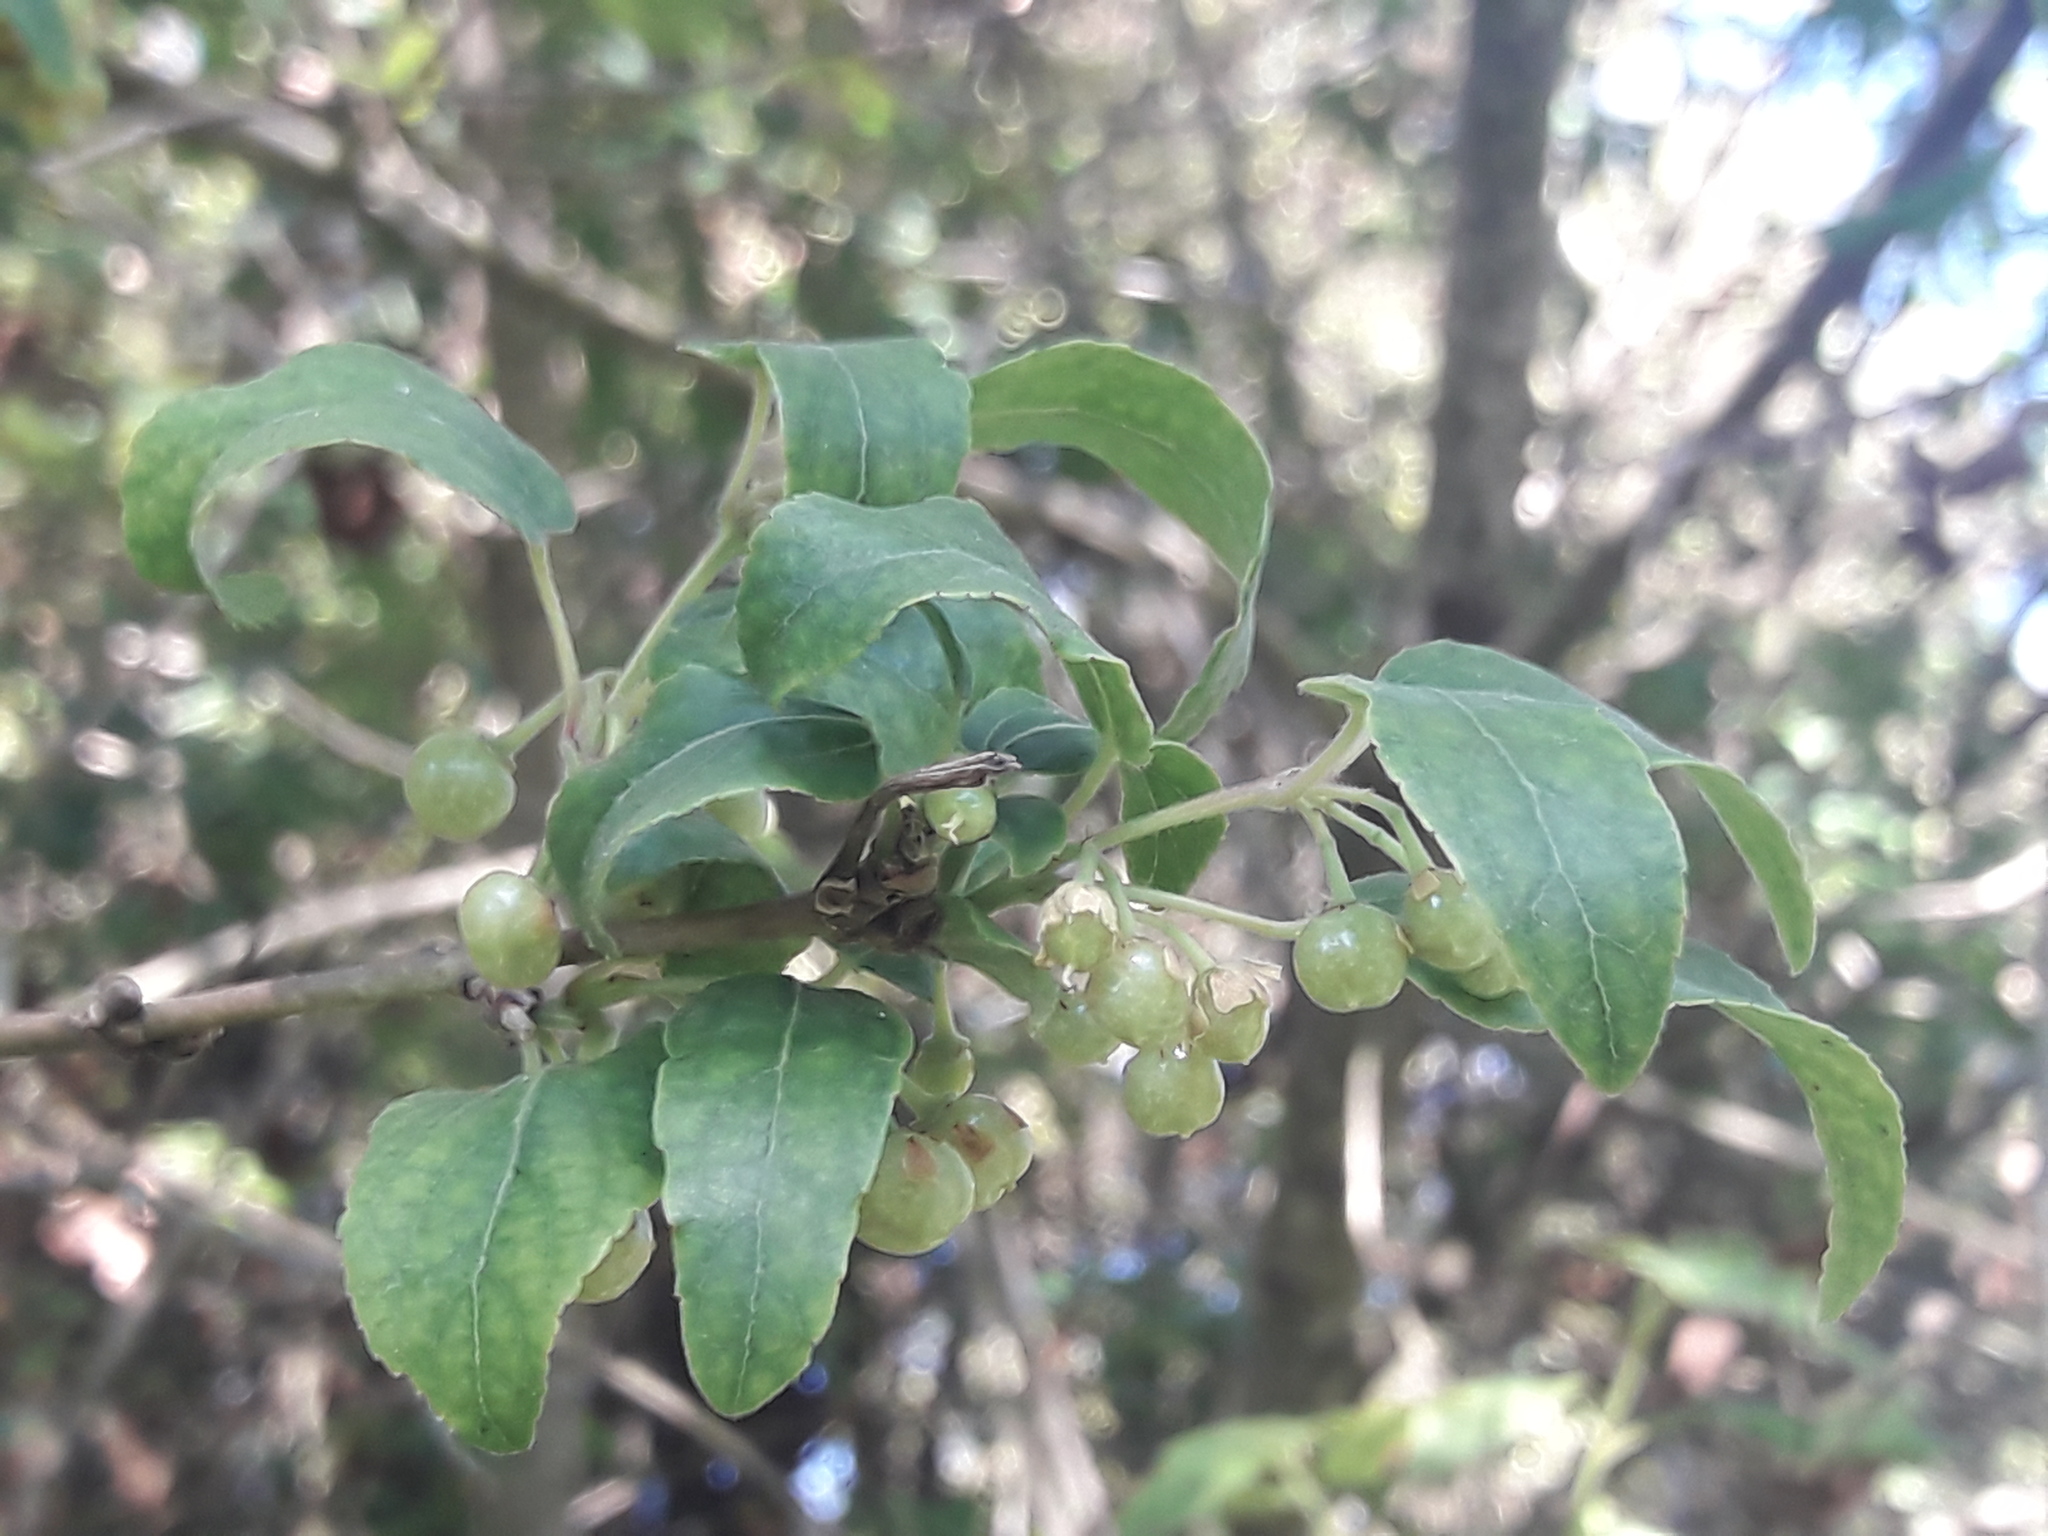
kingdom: Plantae
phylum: Tracheophyta
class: Magnoliopsida
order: Oxalidales
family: Elaeocarpaceae
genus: Aristotelia
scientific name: Aristotelia chilensis
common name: Maquei
